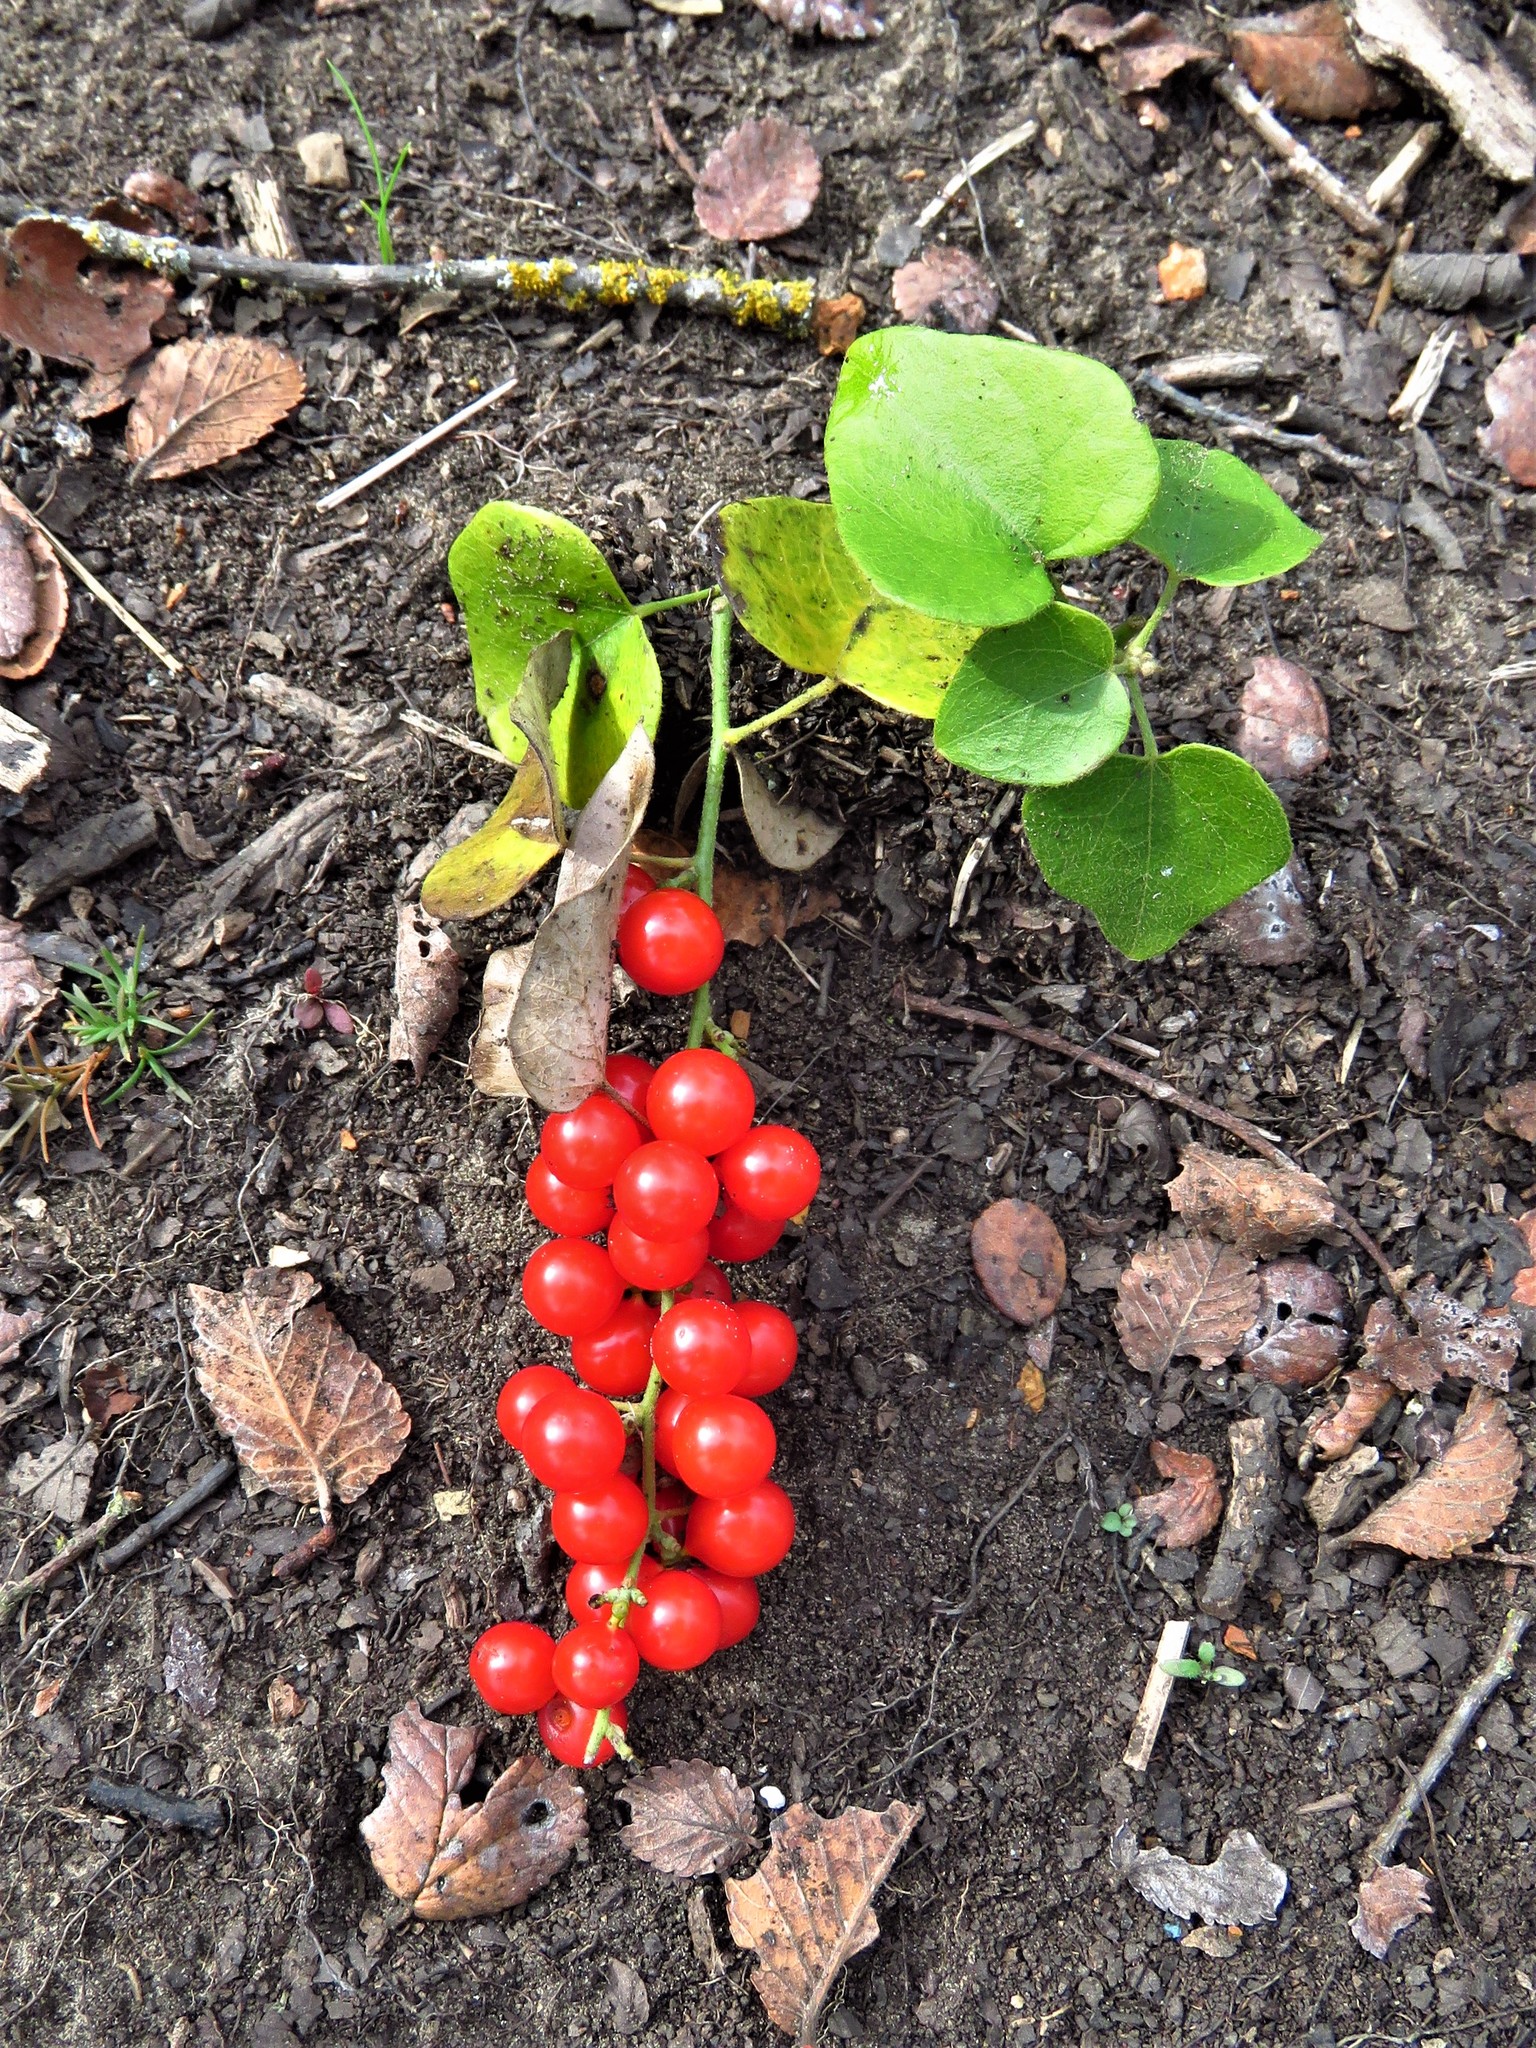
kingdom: Plantae
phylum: Tracheophyta
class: Magnoliopsida
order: Ranunculales
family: Menispermaceae
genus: Cocculus
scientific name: Cocculus carolinus
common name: Carolina moonseed
